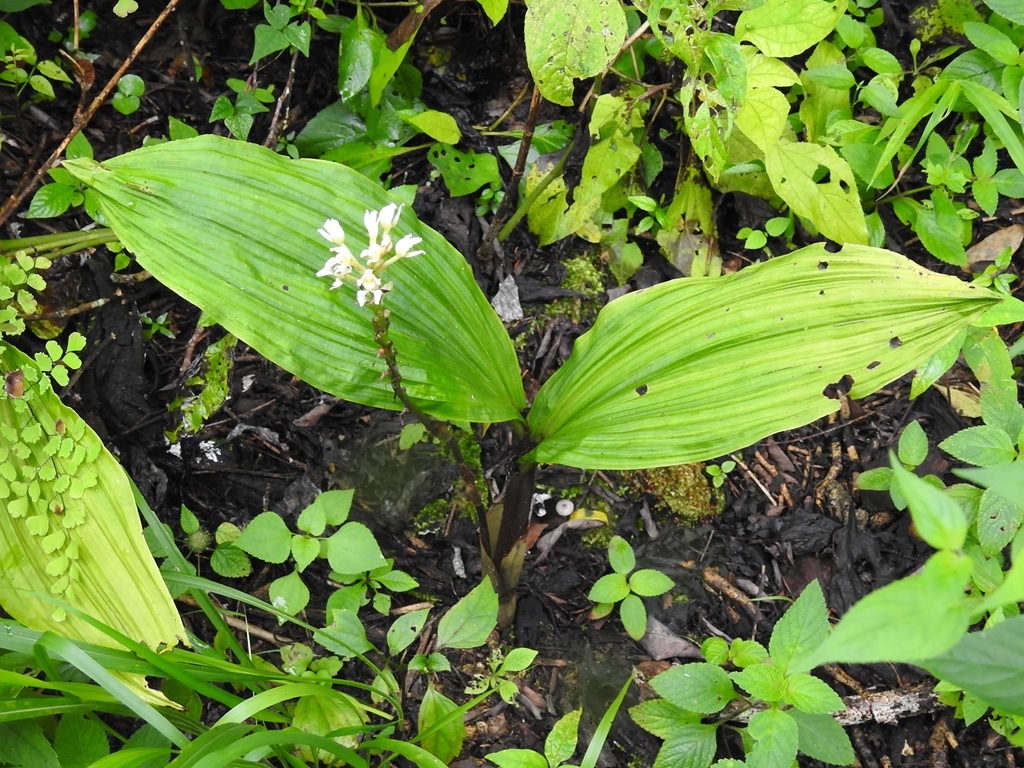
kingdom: Plantae
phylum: Tracheophyta
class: Liliopsida
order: Asparagales
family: Orchidaceae
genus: Govenia
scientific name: Govenia alba
